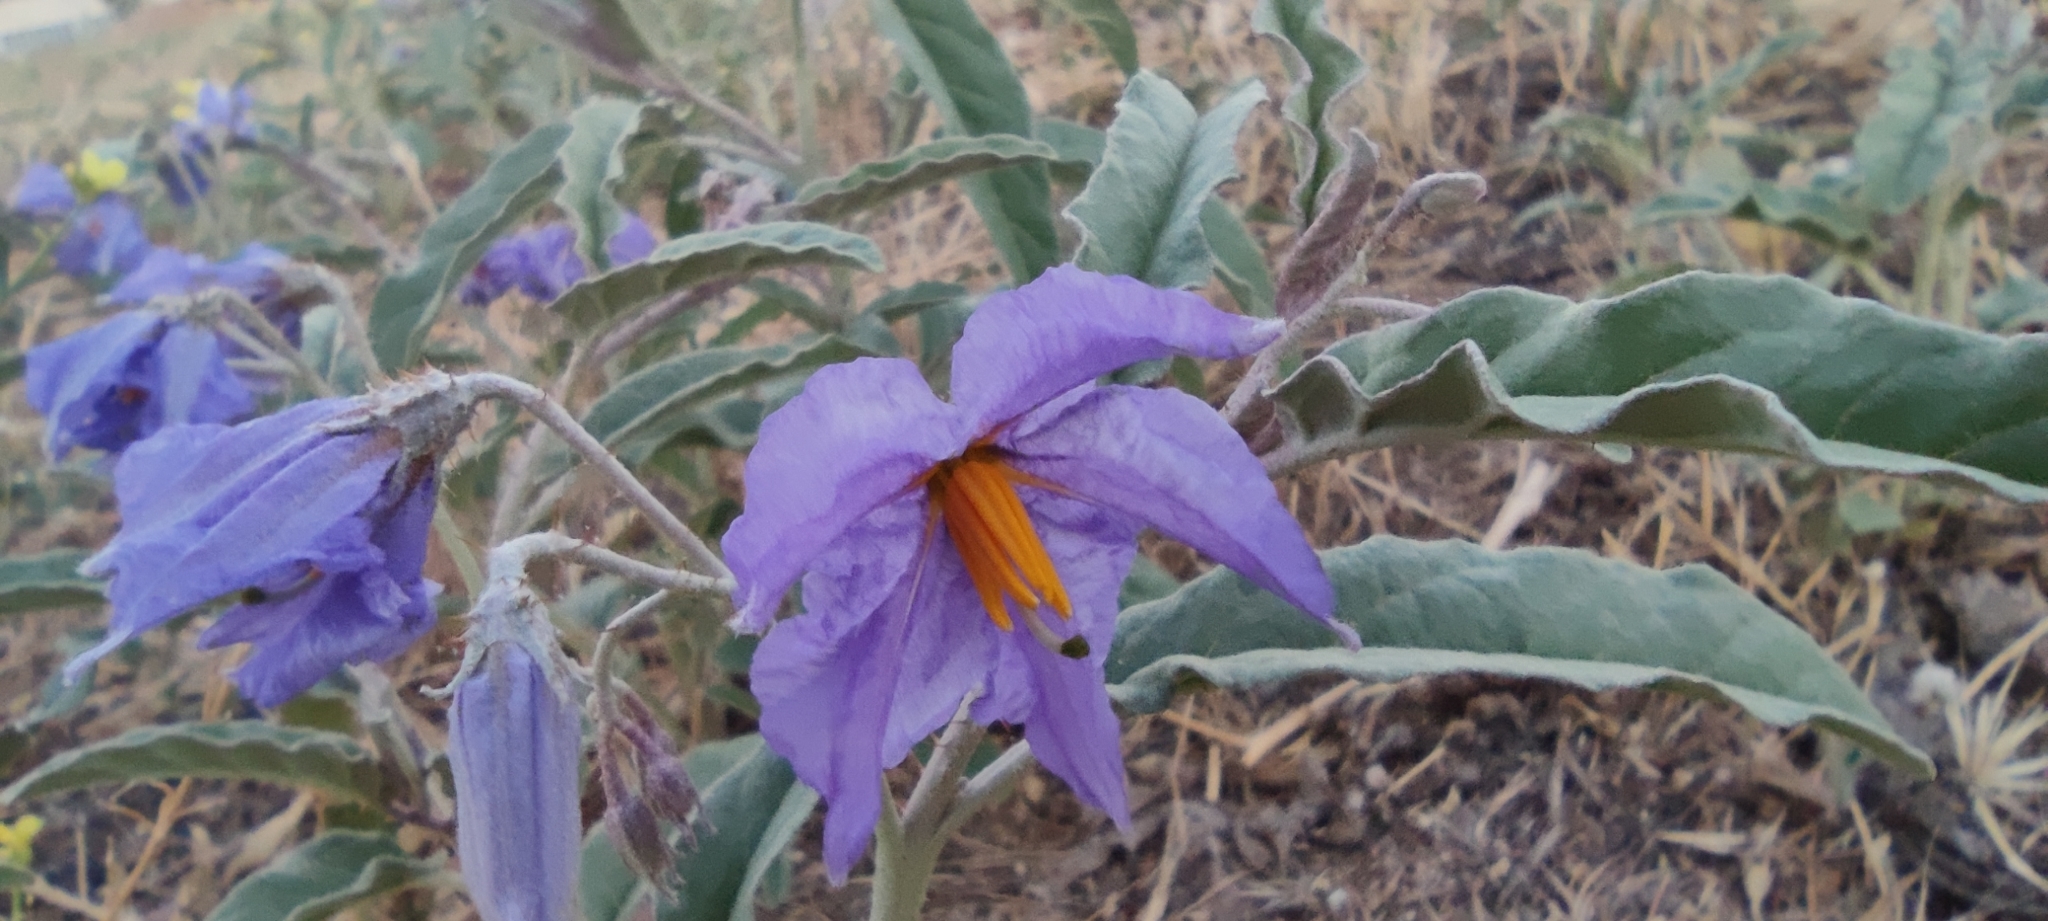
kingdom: Plantae
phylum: Tracheophyta
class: Magnoliopsida
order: Solanales
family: Solanaceae
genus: Solanum
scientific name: Solanum elaeagnifolium
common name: Silverleaf nightshade
